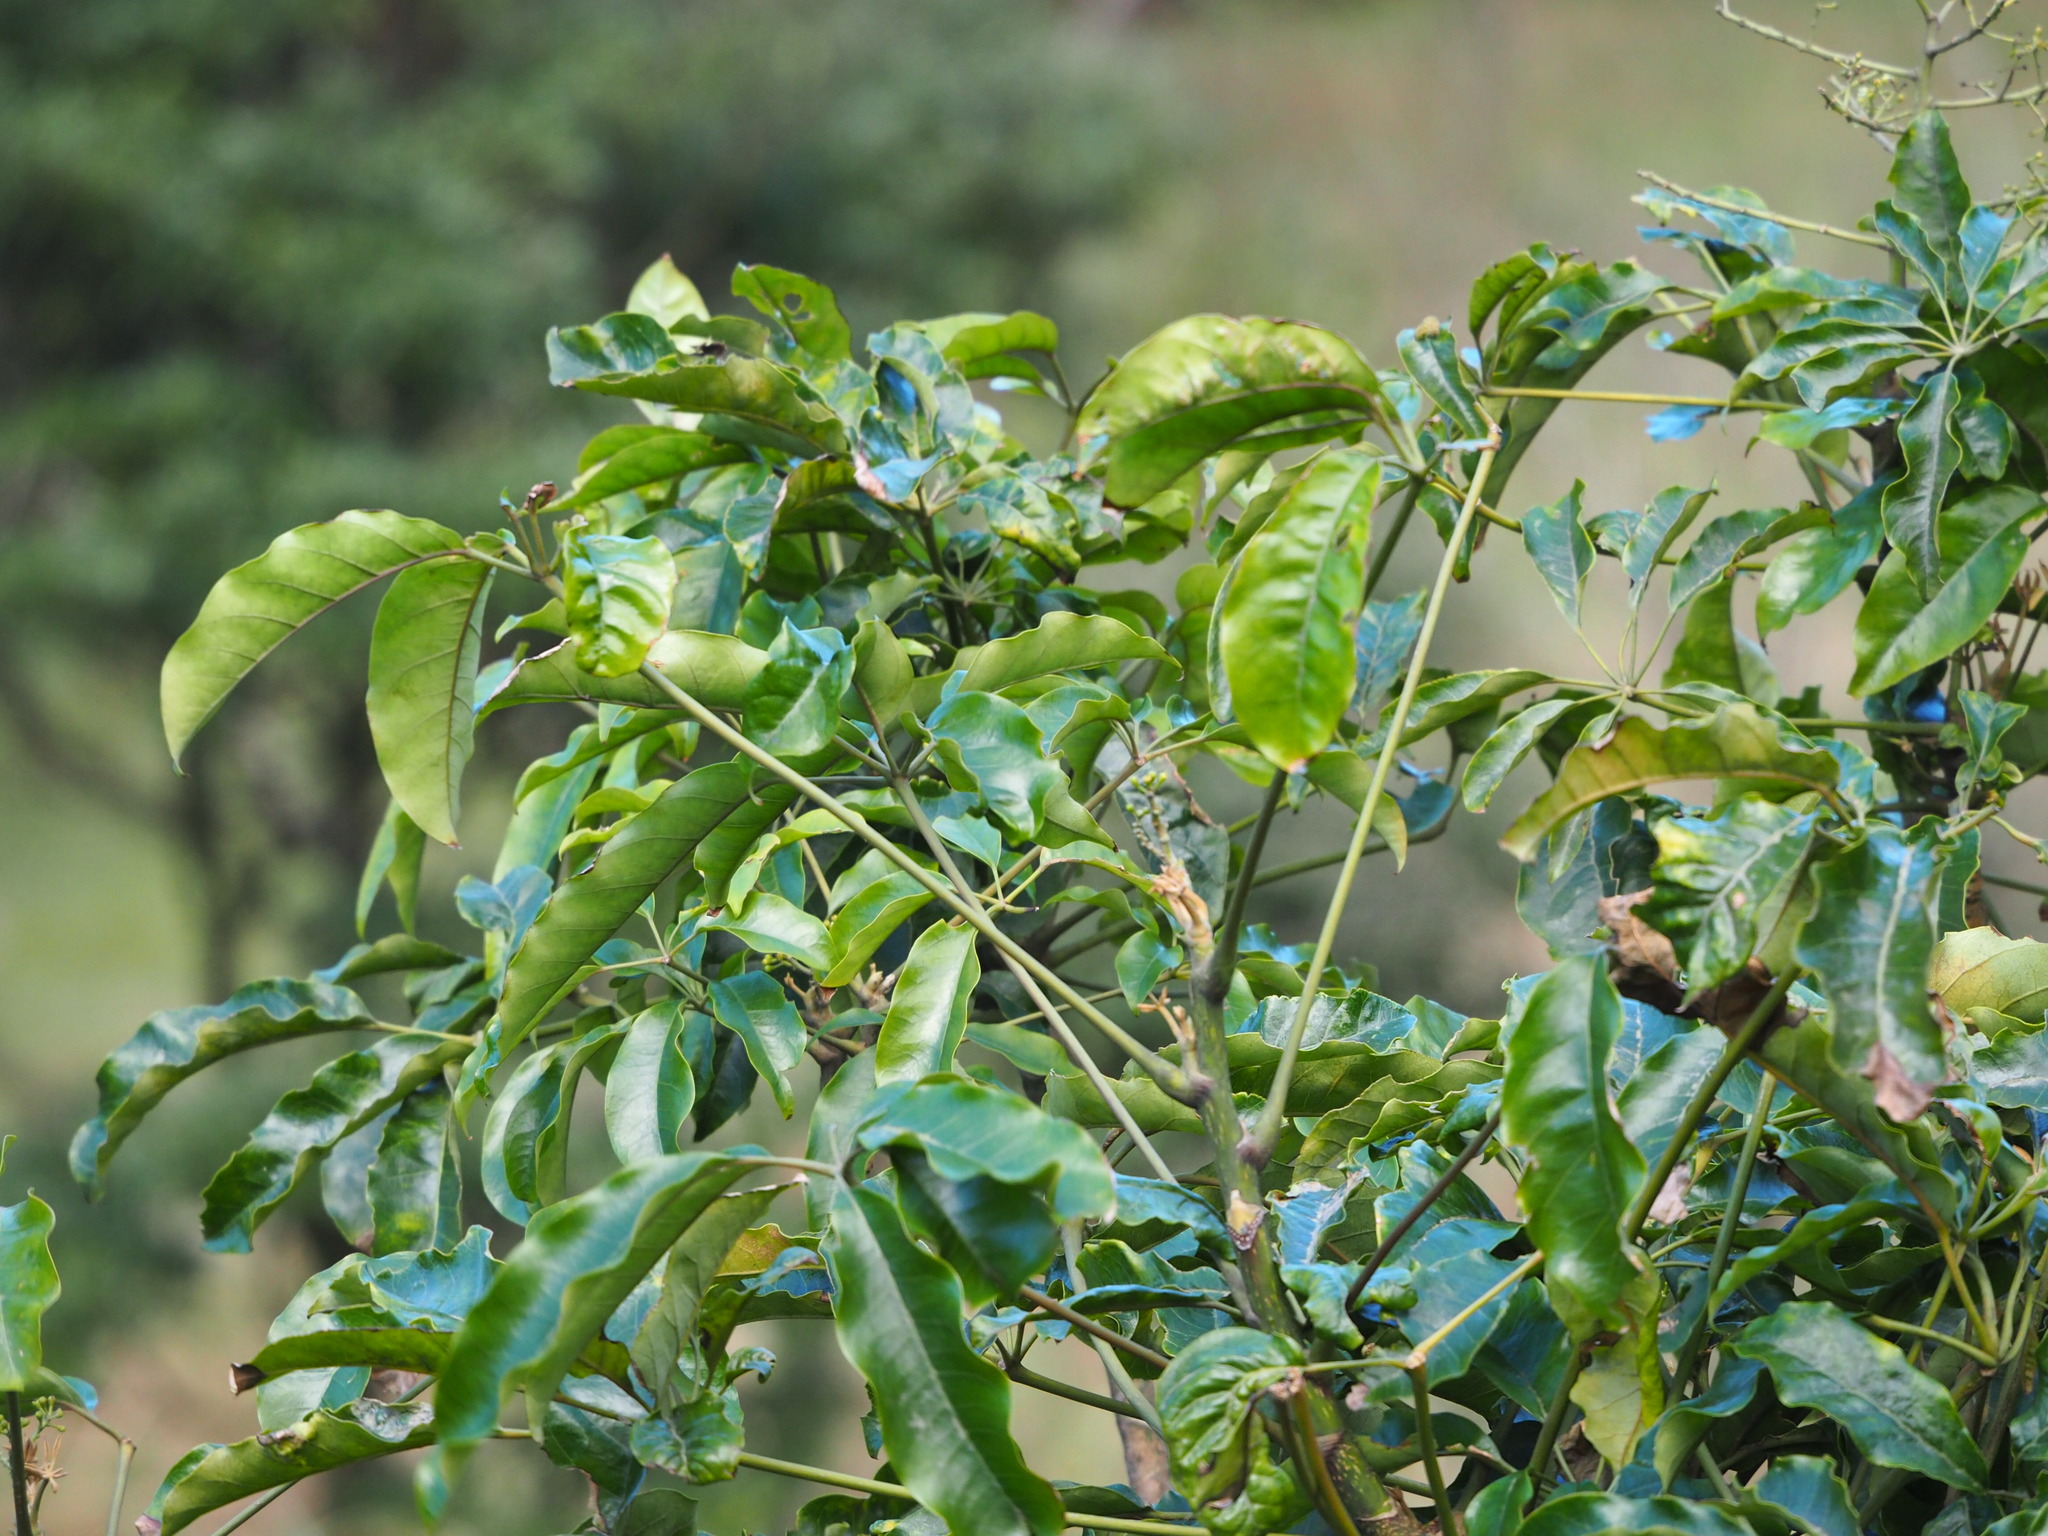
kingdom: Plantae
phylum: Tracheophyta
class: Magnoliopsida
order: Apiales
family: Araliaceae
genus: Heptapleurum
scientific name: Heptapleurum heptaphyllum
